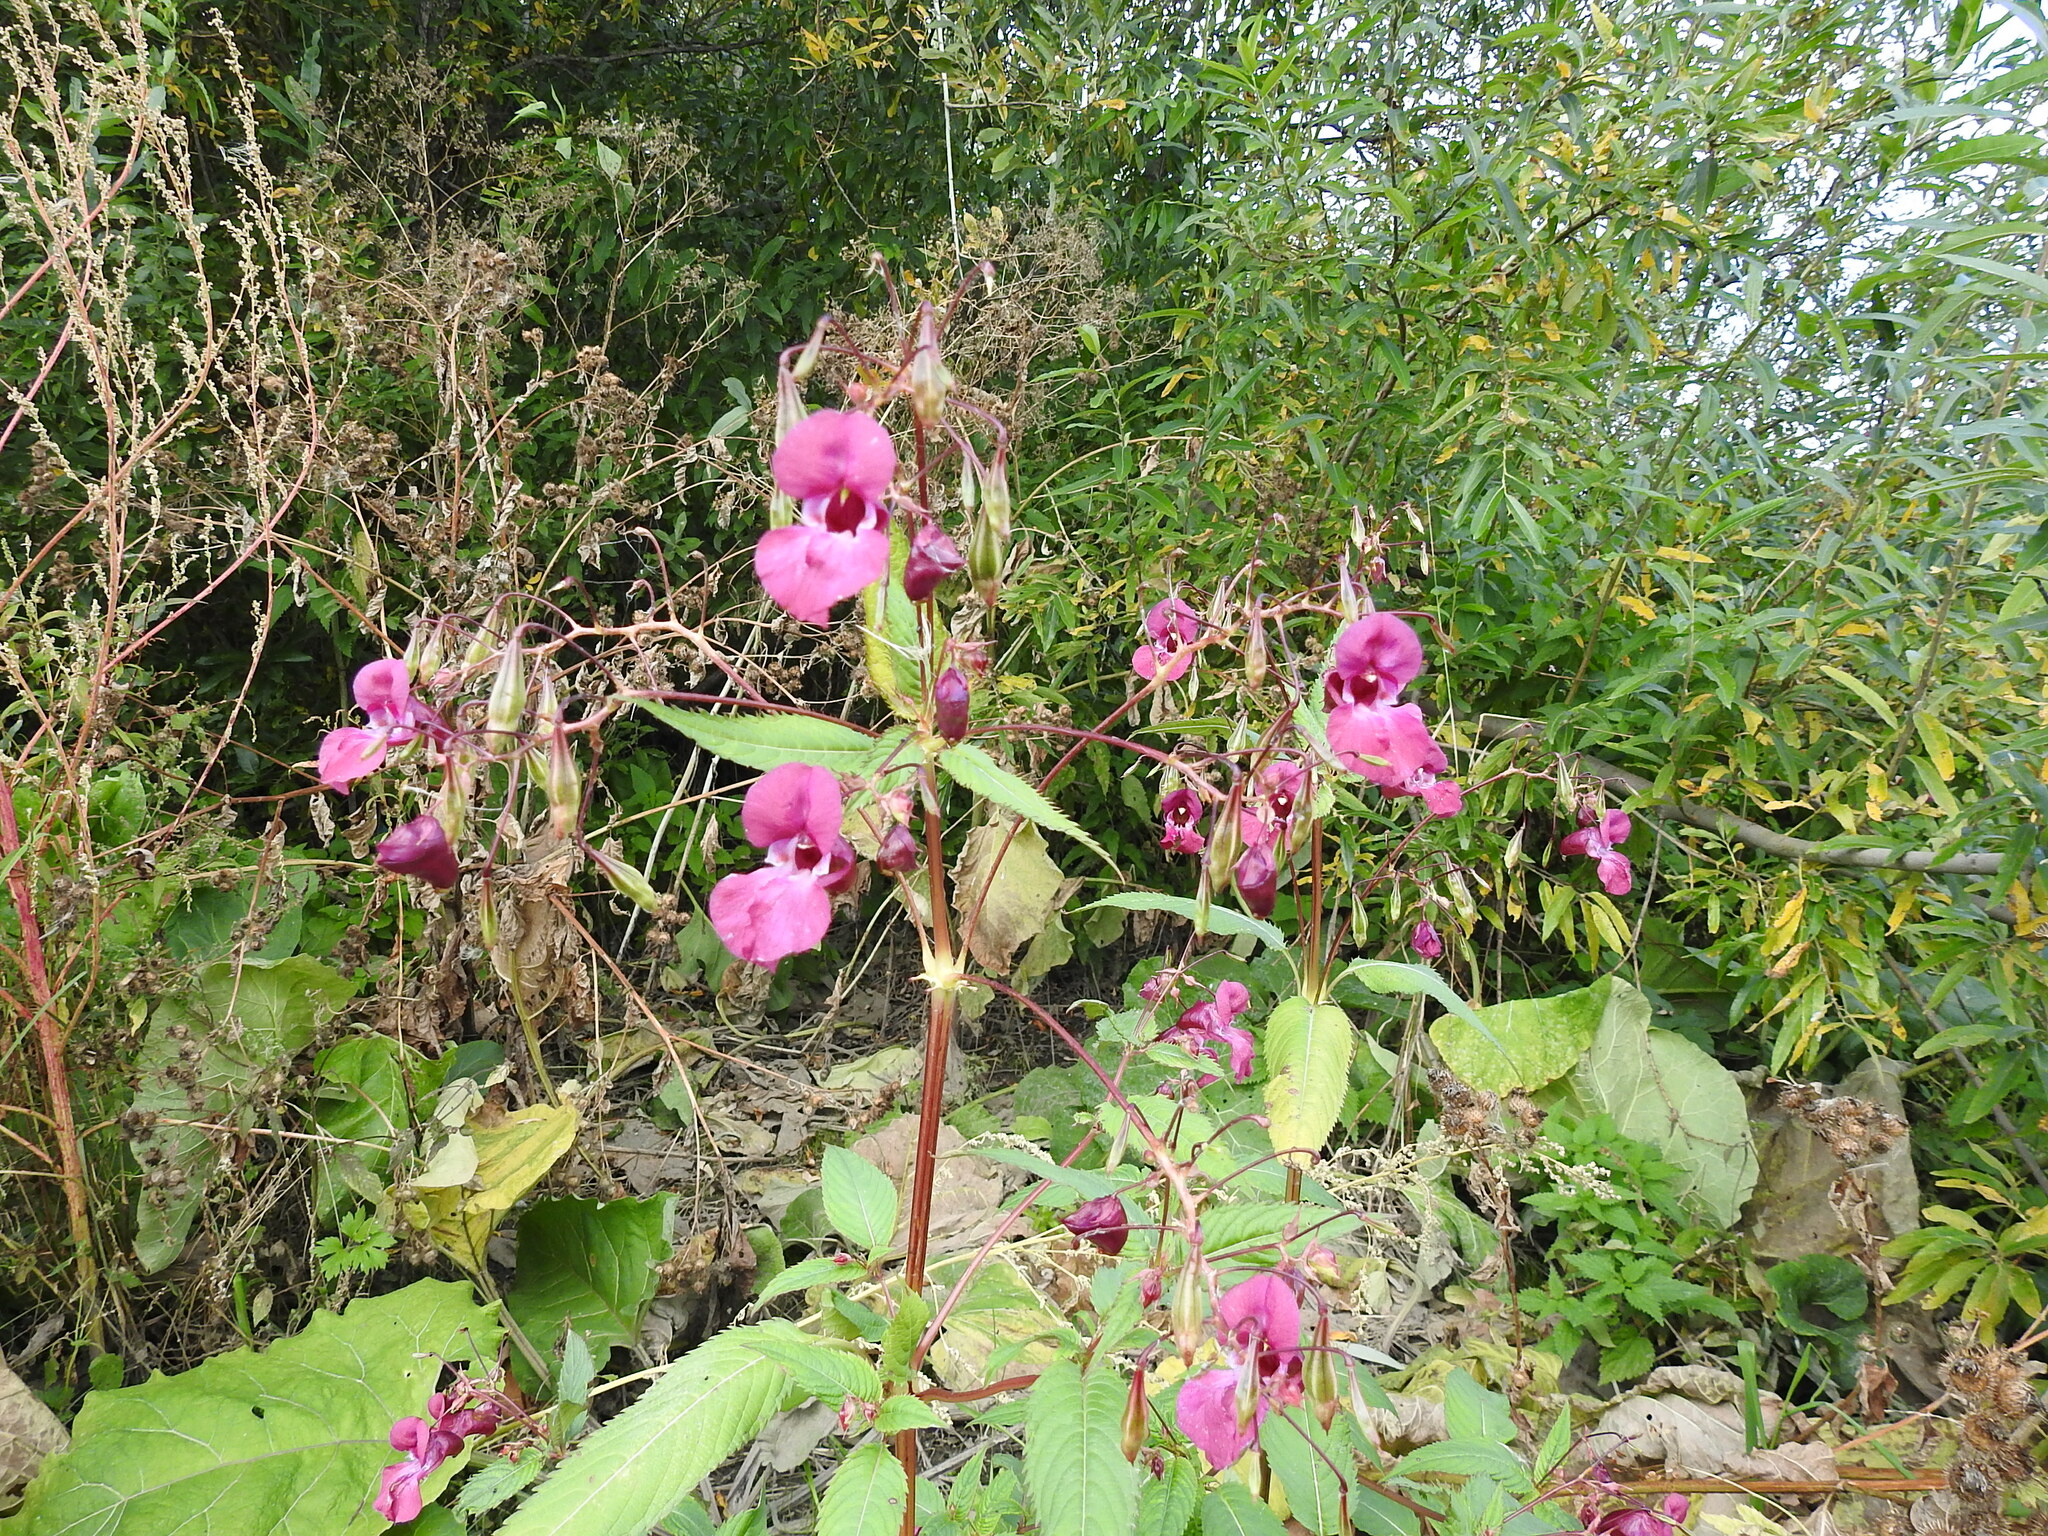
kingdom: Plantae
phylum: Tracheophyta
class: Magnoliopsida
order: Ericales
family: Balsaminaceae
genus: Impatiens
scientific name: Impatiens glandulifera
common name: Himalayan balsam
